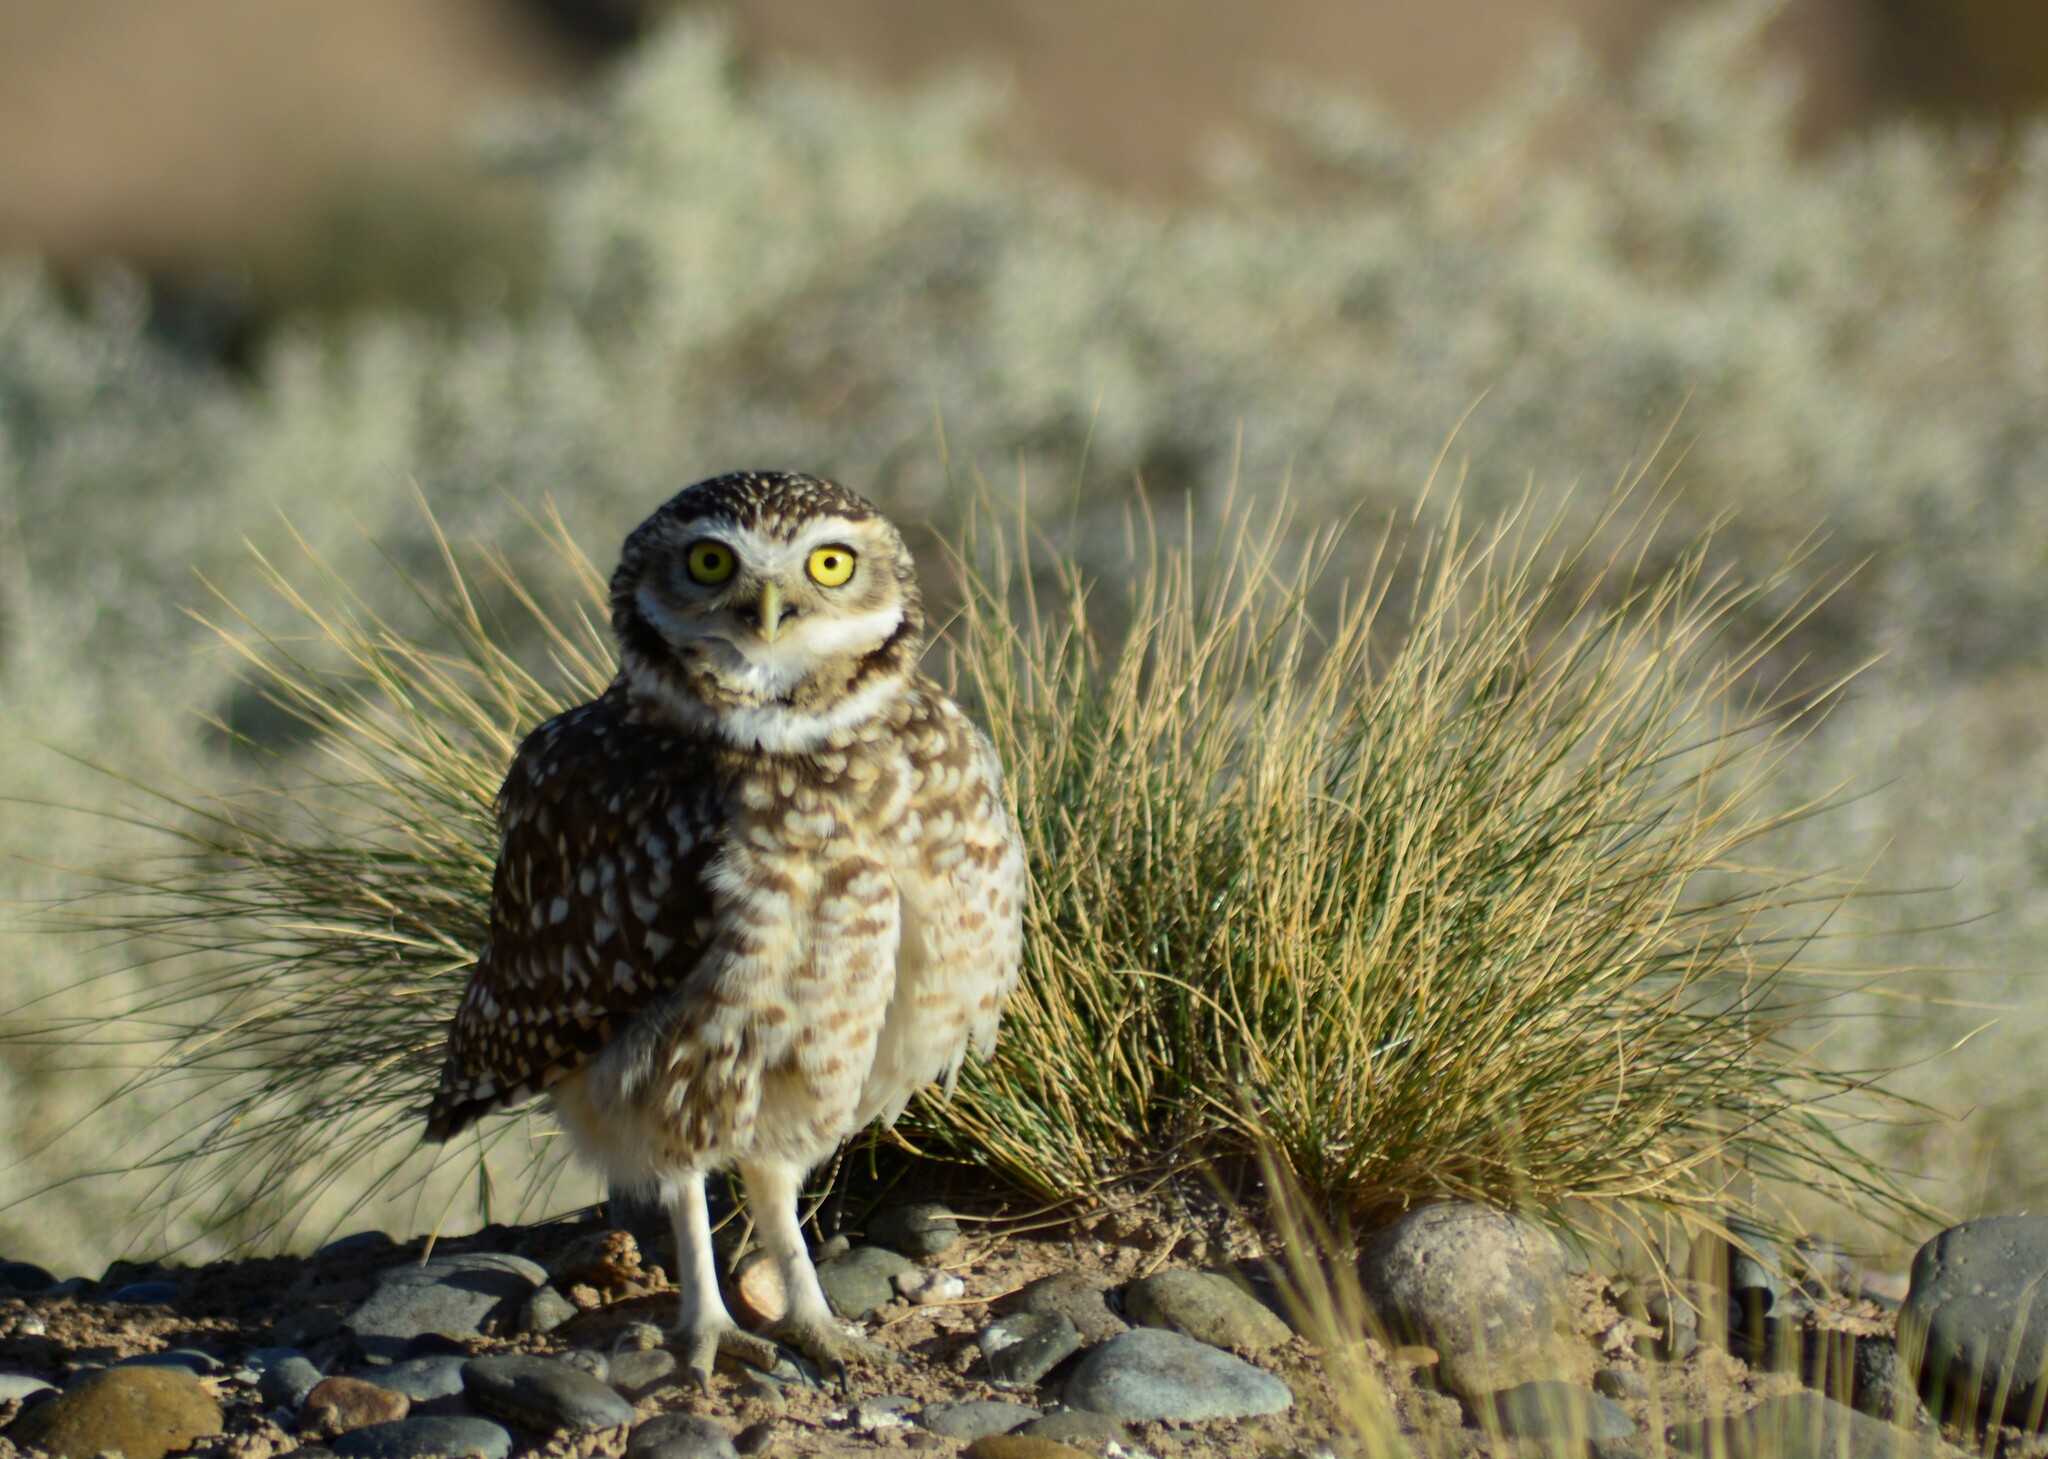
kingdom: Animalia
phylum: Chordata
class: Aves
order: Strigiformes
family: Strigidae
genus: Athene
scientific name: Athene cunicularia
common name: Burrowing owl
